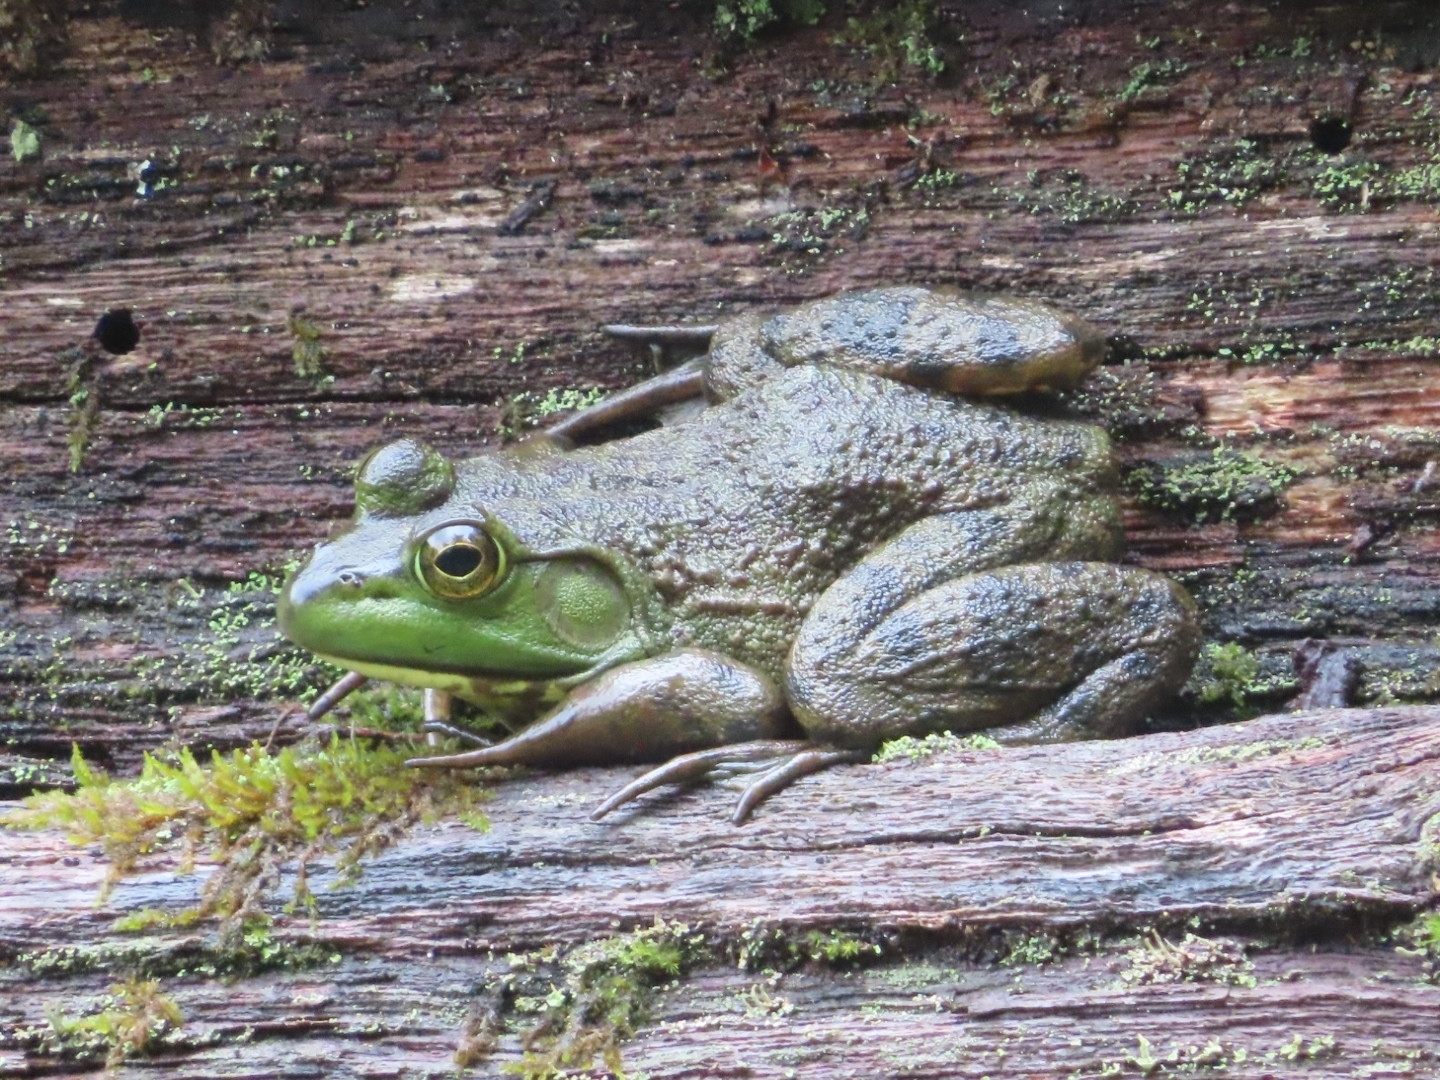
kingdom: Animalia
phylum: Chordata
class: Amphibia
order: Anura
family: Ranidae
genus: Lithobates
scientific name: Lithobates catesbeianus
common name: American bullfrog
